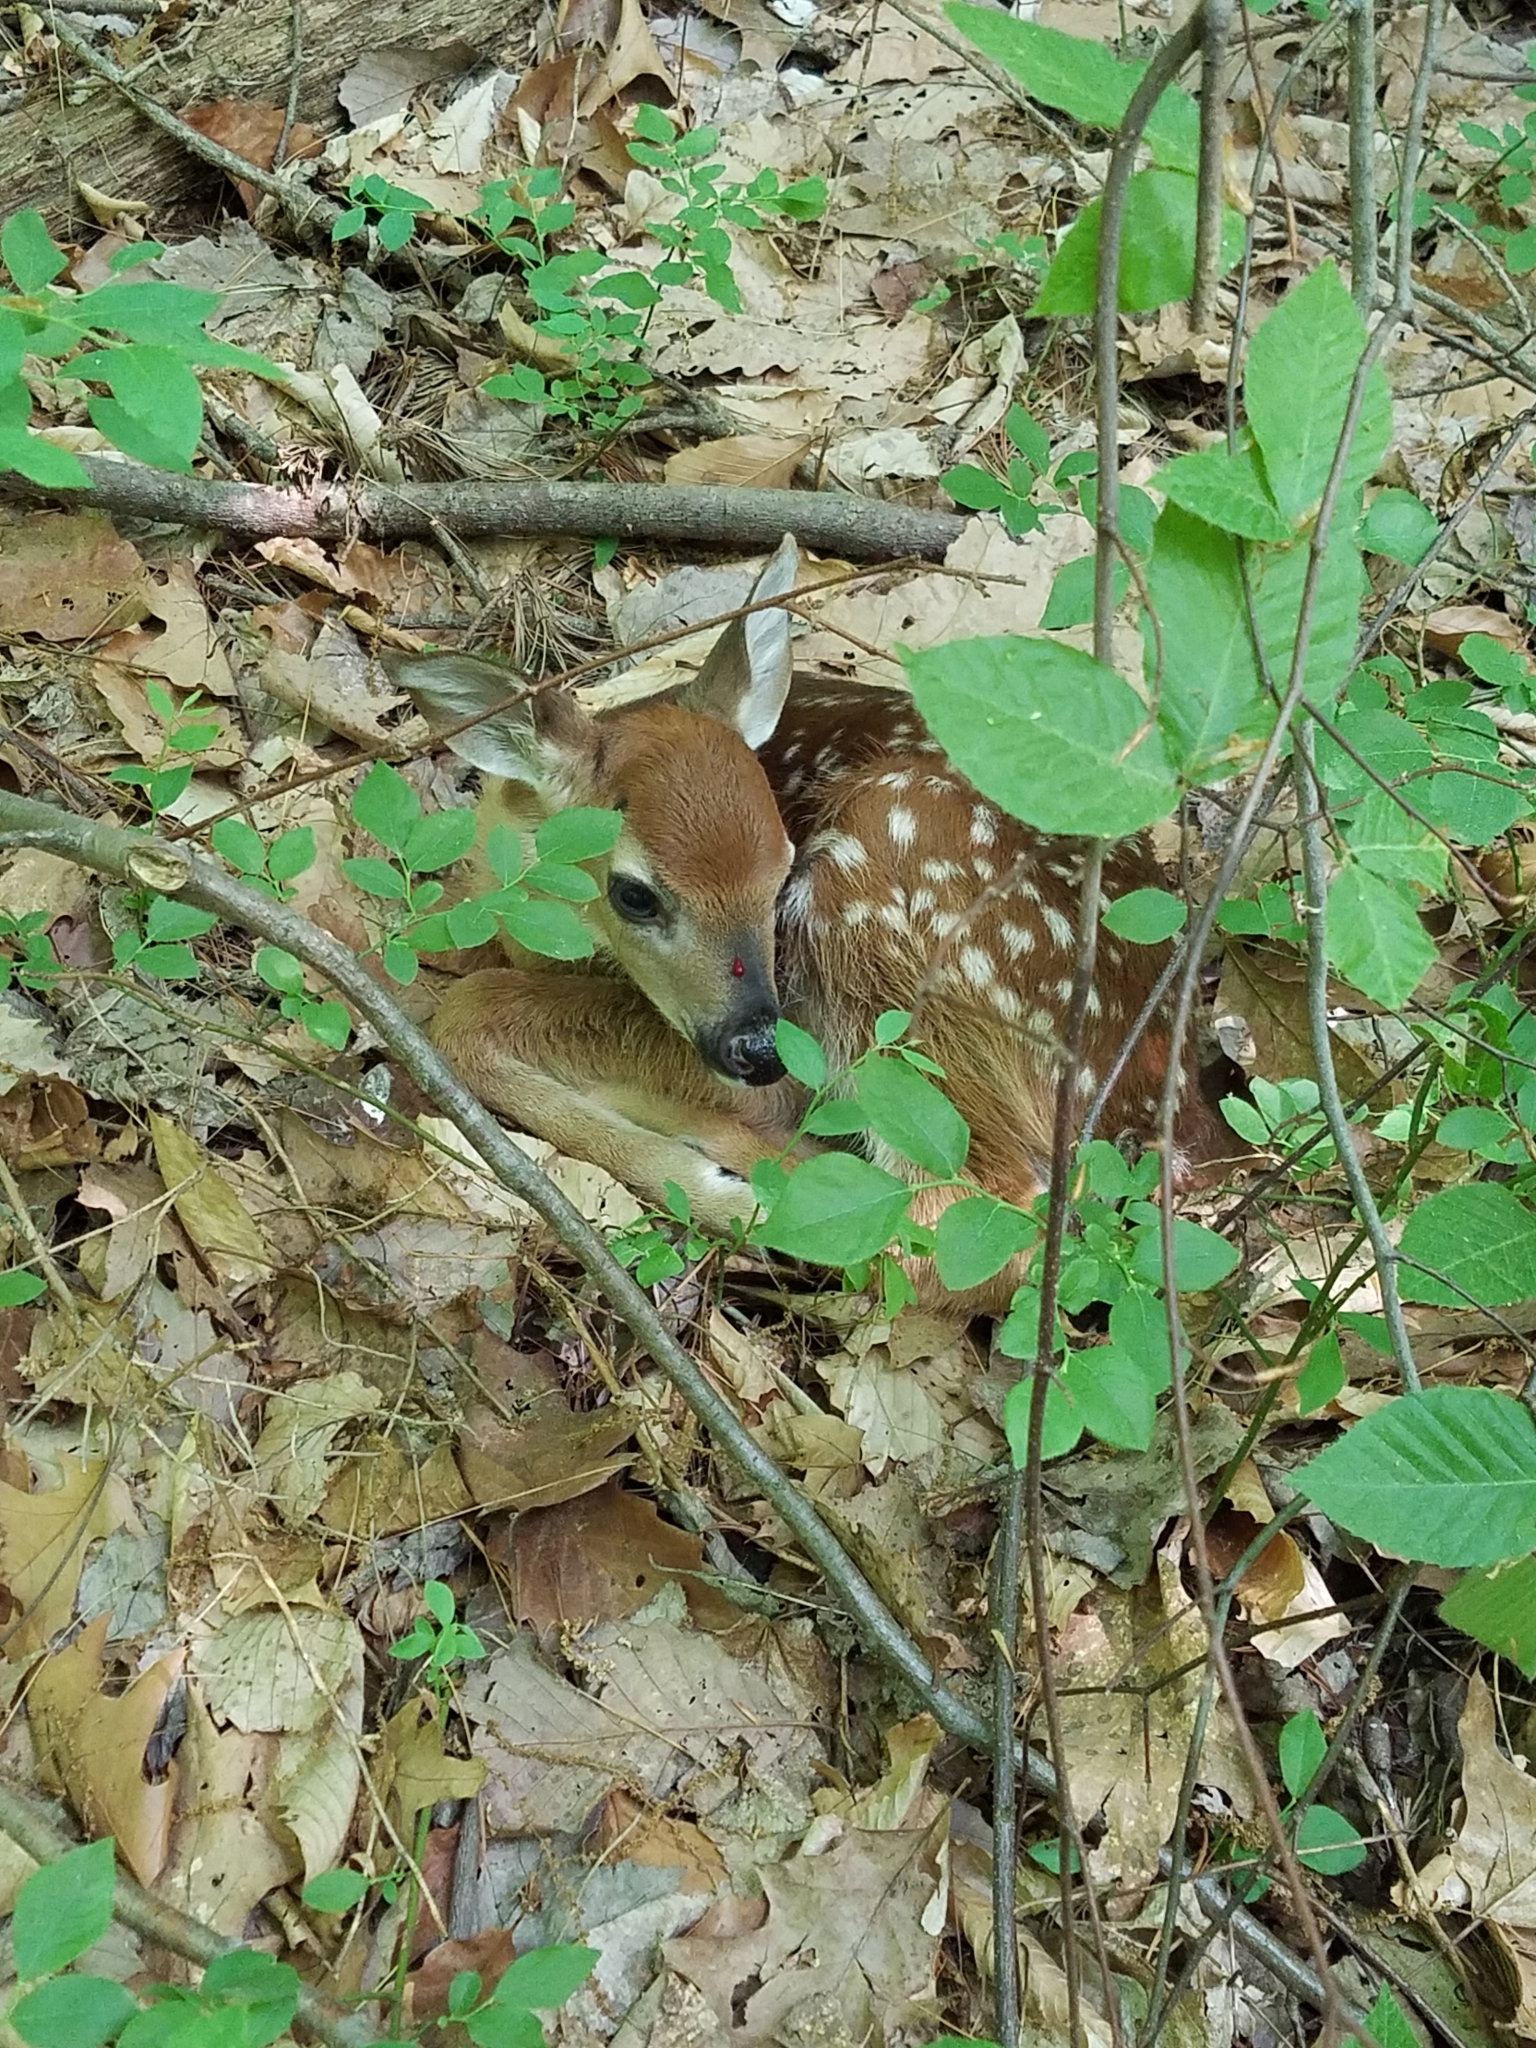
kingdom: Animalia
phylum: Chordata
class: Mammalia
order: Artiodactyla
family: Cervidae
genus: Odocoileus
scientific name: Odocoileus virginianus
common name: White-tailed deer
